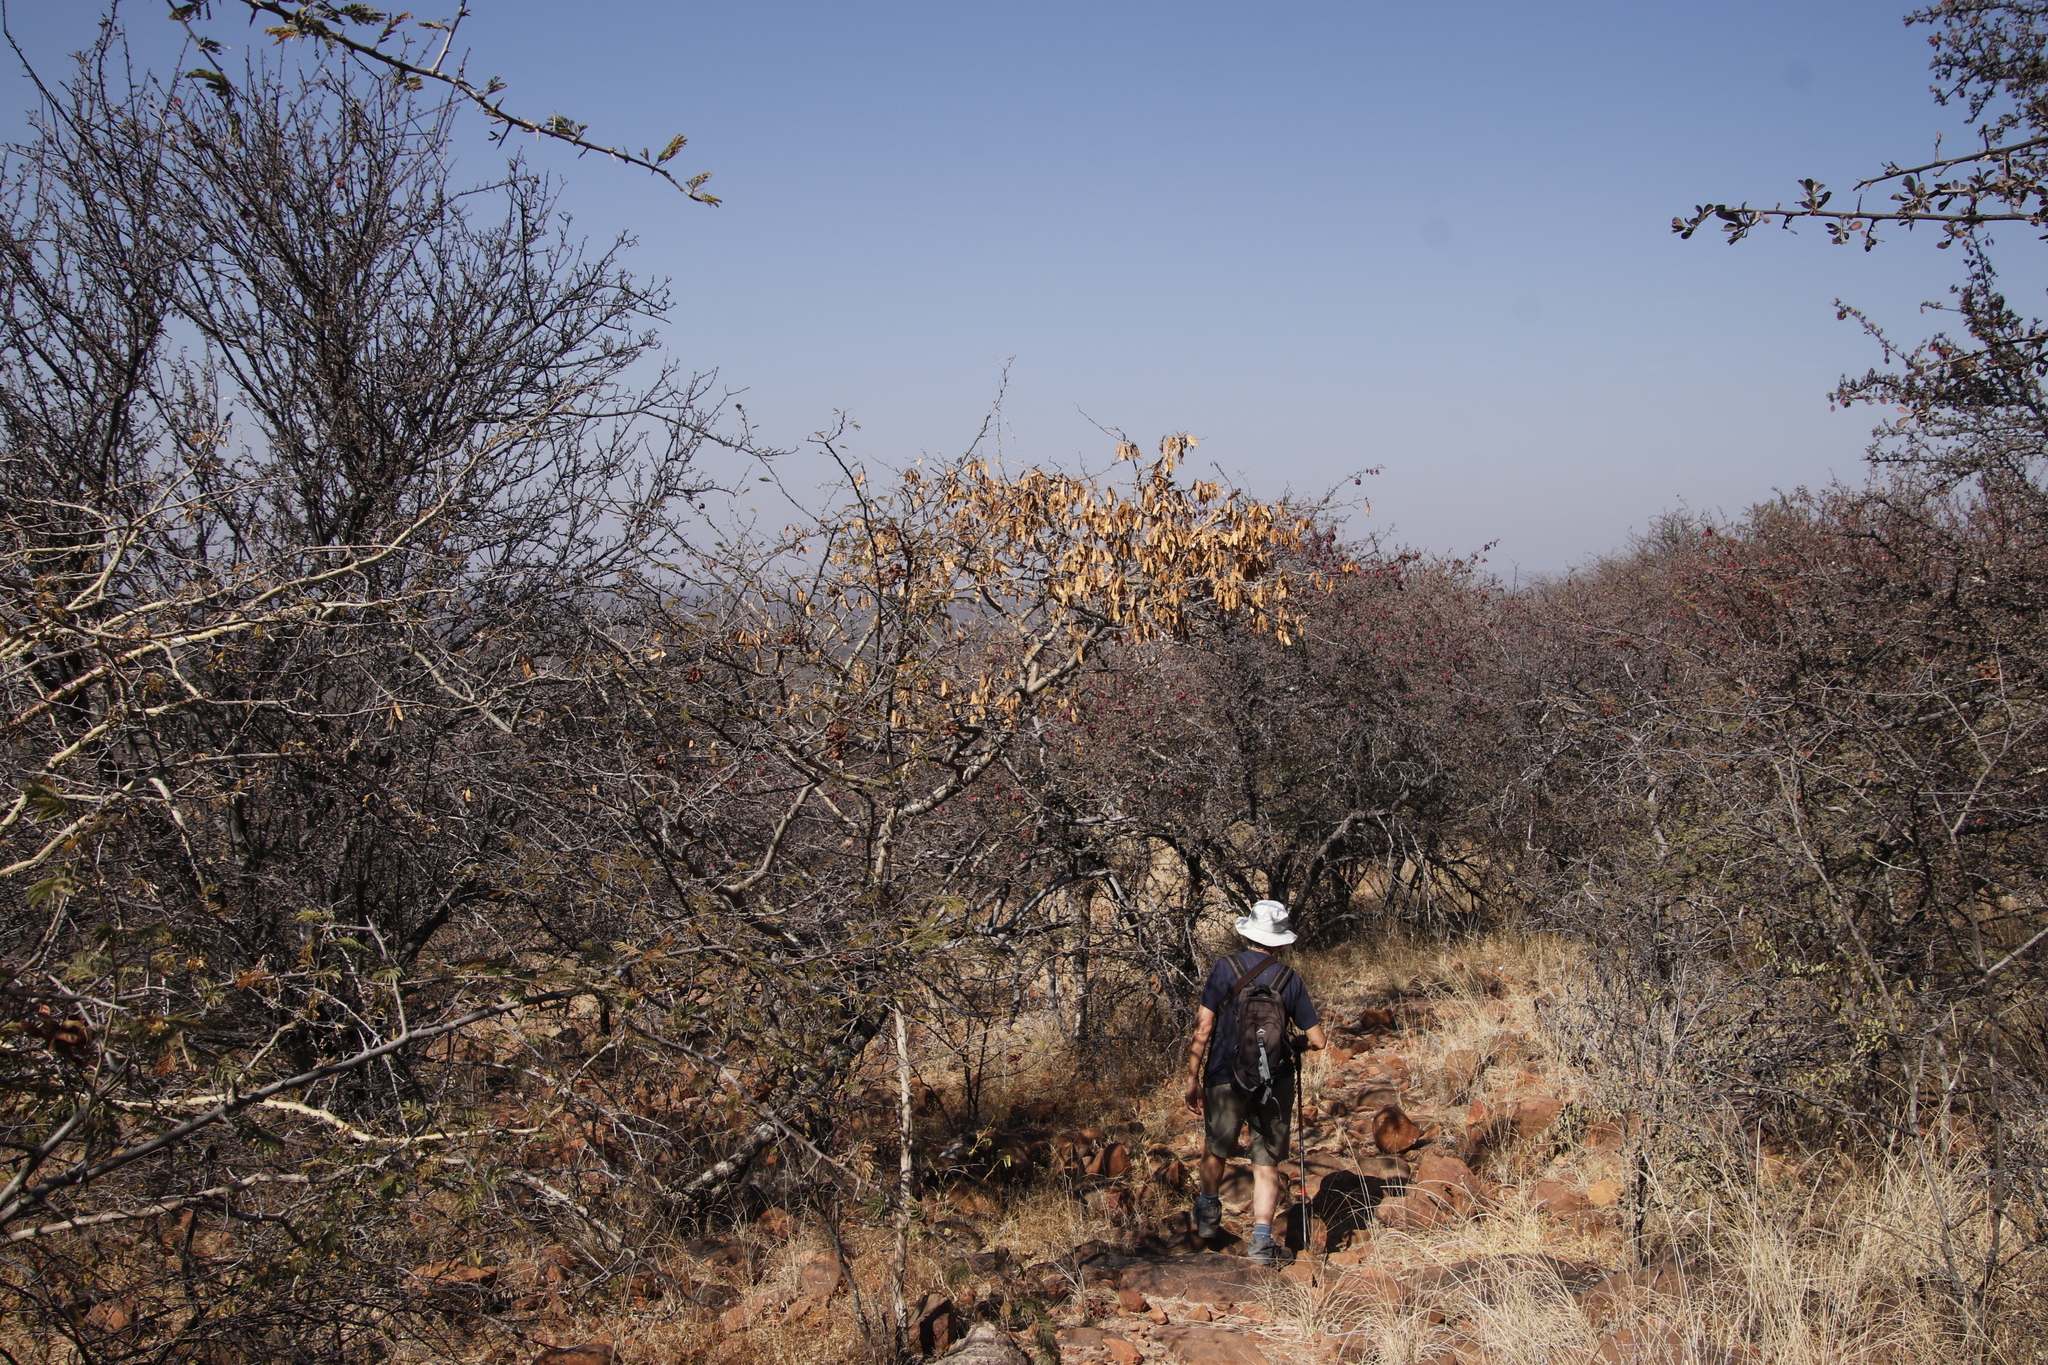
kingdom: Plantae
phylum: Tracheophyta
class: Magnoliopsida
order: Fabales
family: Fabaceae
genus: Senegalia
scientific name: Senegalia erubescens
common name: Bluethorn
